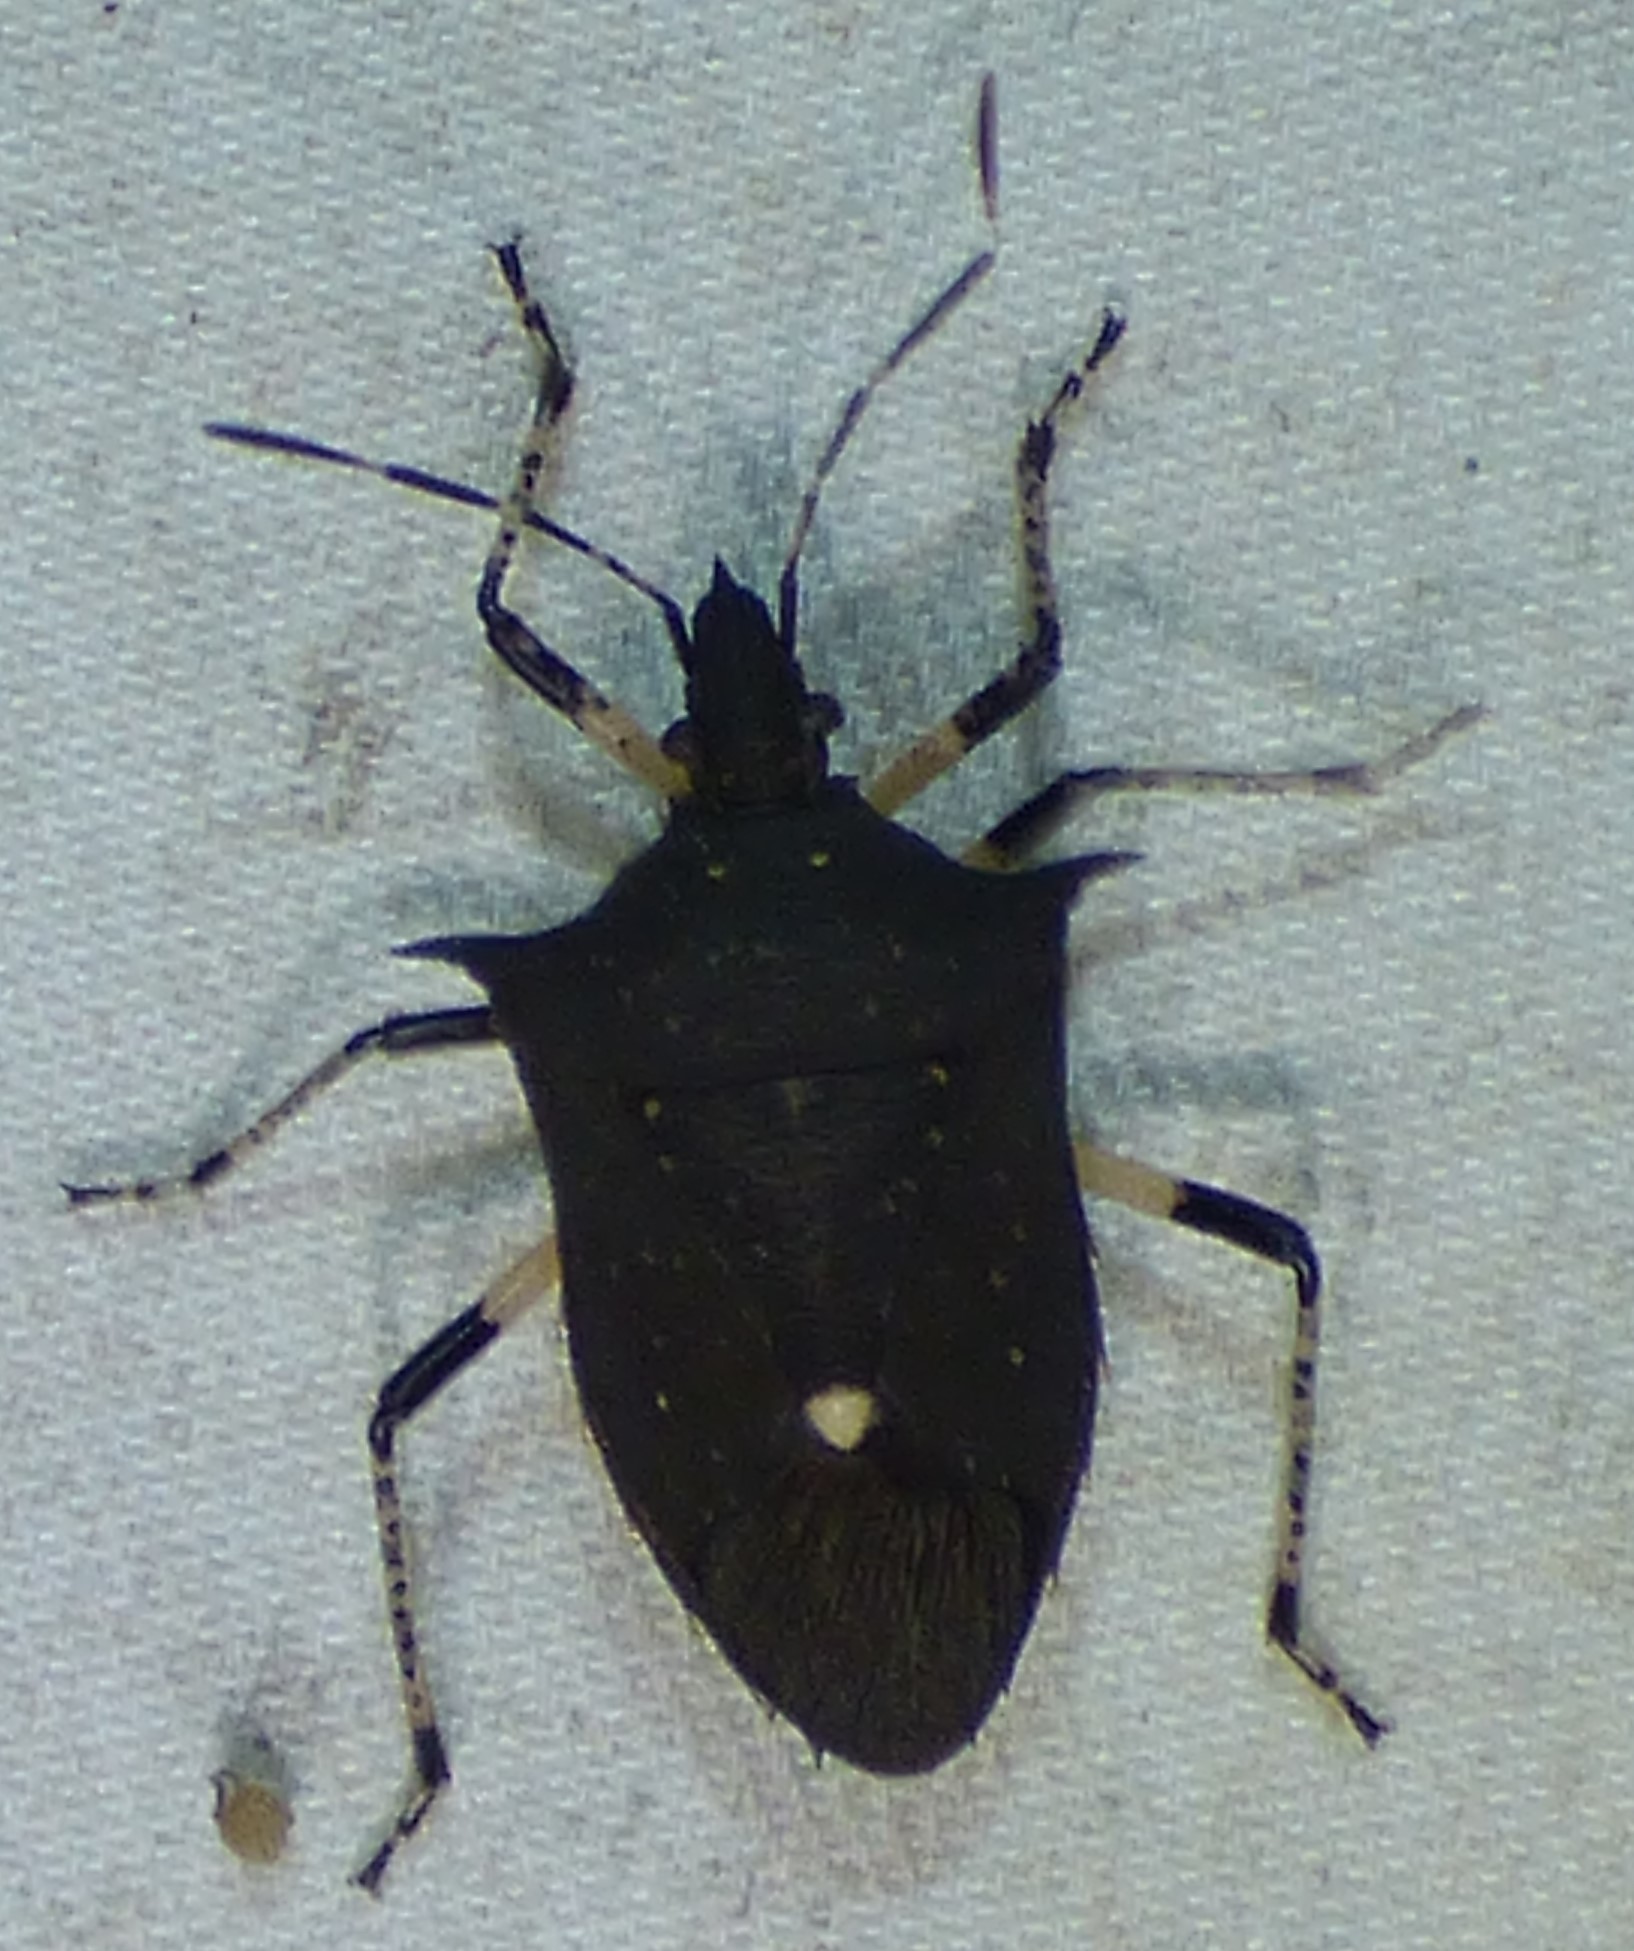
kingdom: Animalia
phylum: Arthropoda
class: Insecta
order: Hemiptera
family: Pentatomidae
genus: Proxys
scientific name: Proxys punctulatus
